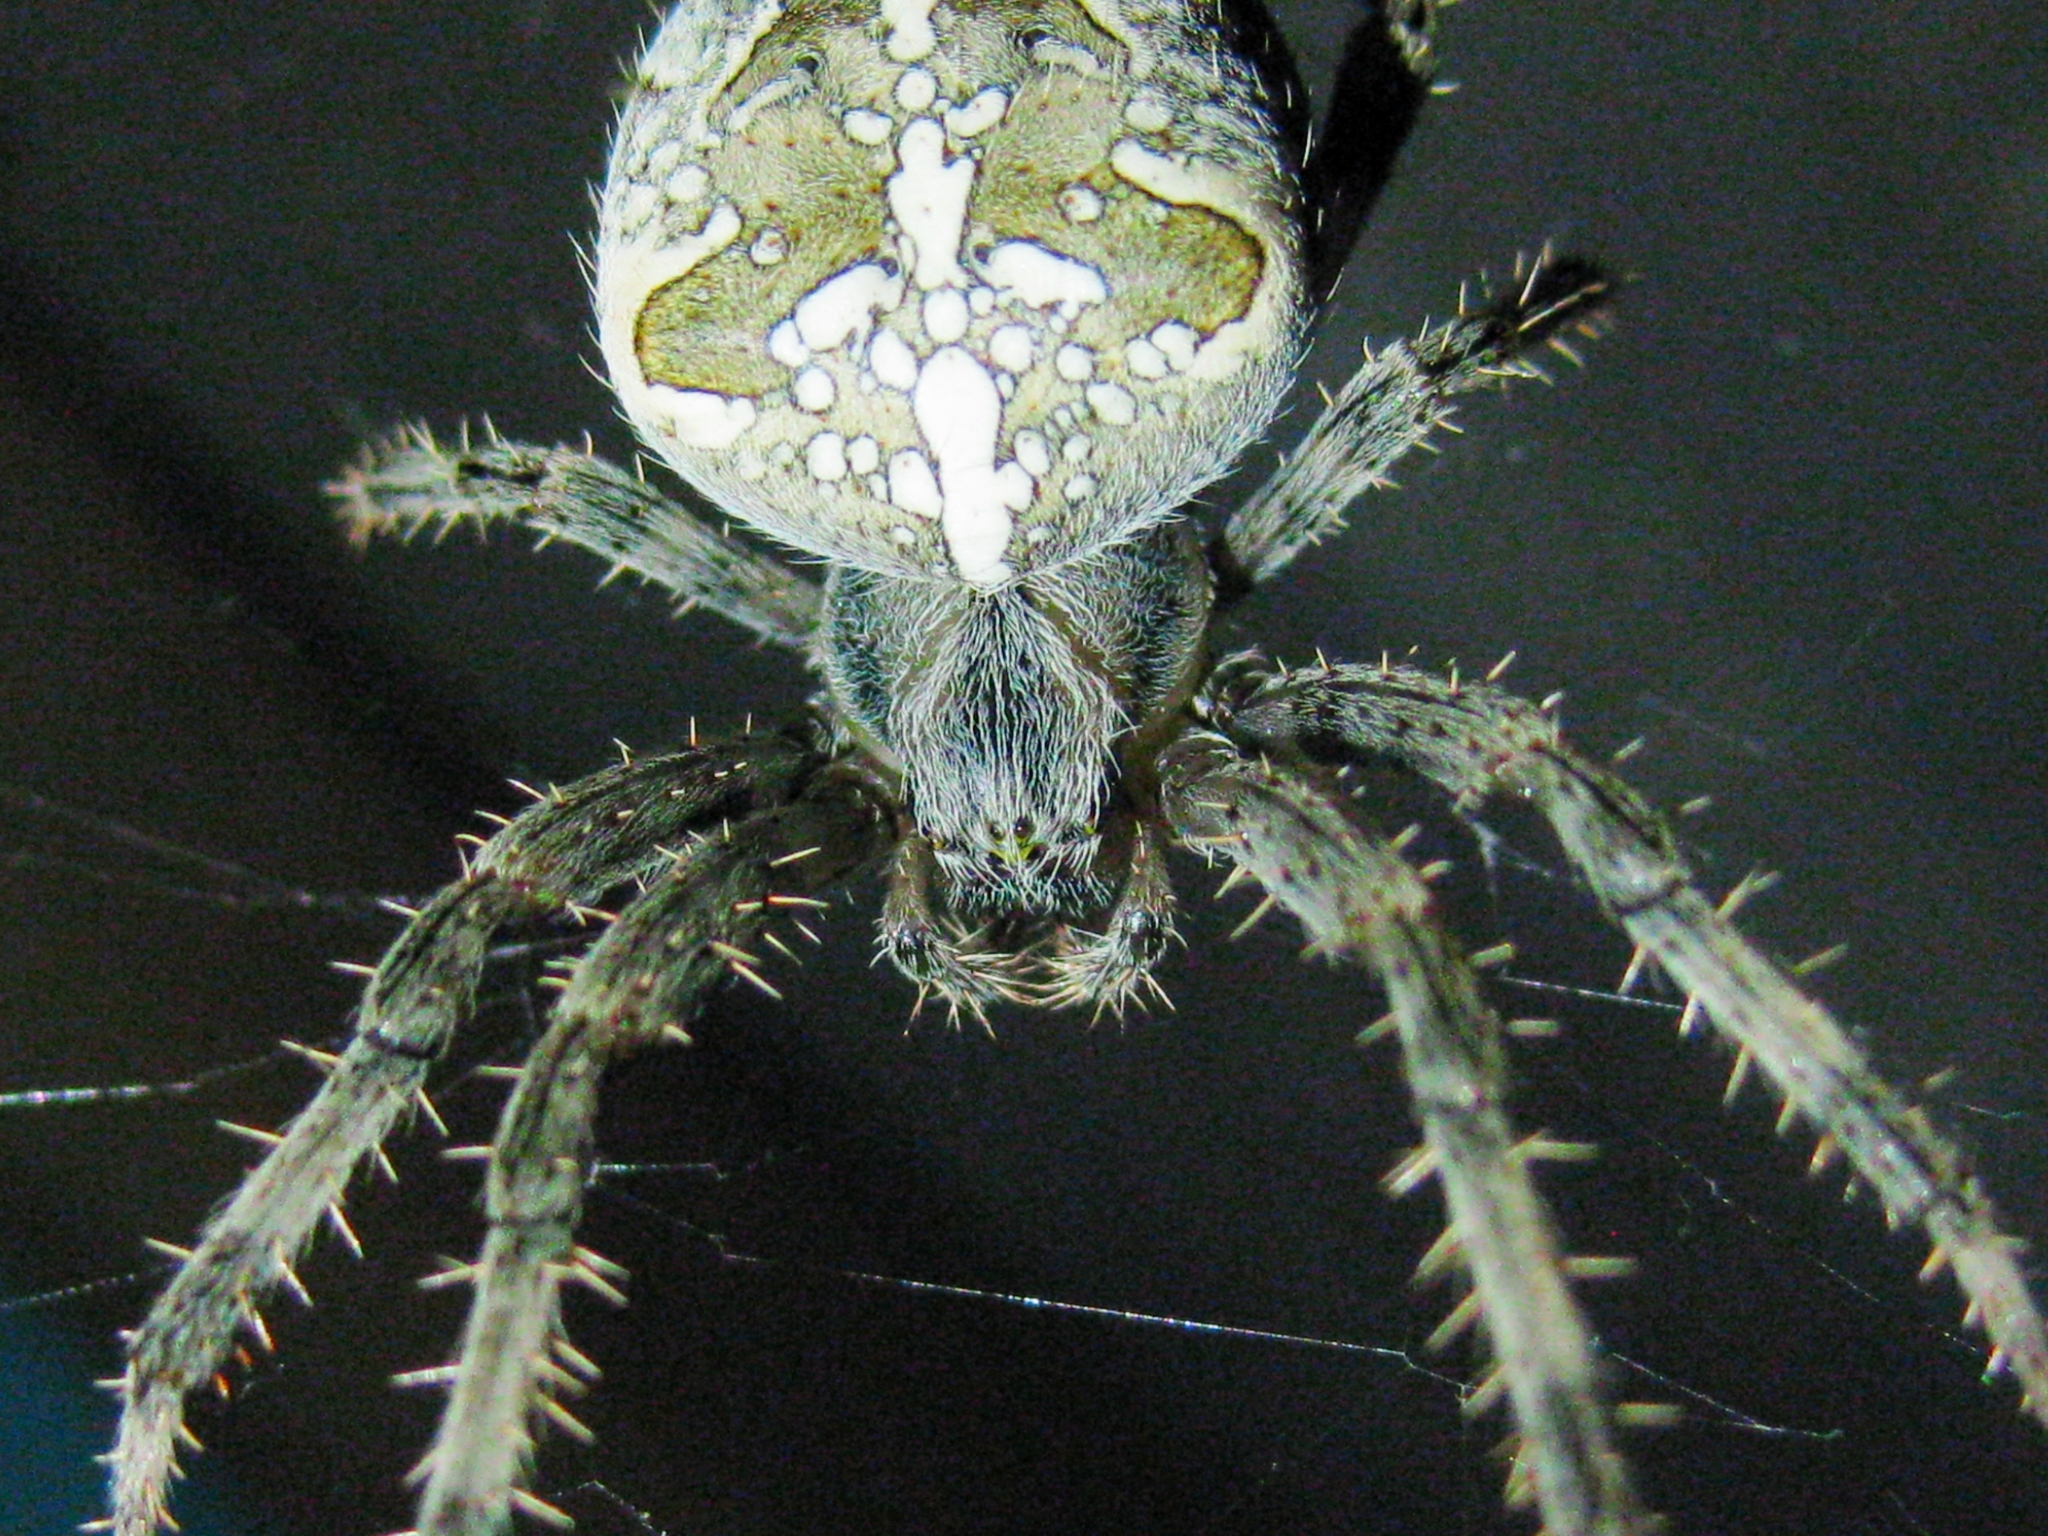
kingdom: Animalia
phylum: Arthropoda
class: Arachnida
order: Araneae
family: Araneidae
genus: Araneus
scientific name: Araneus diadematus
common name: Cross orbweaver
